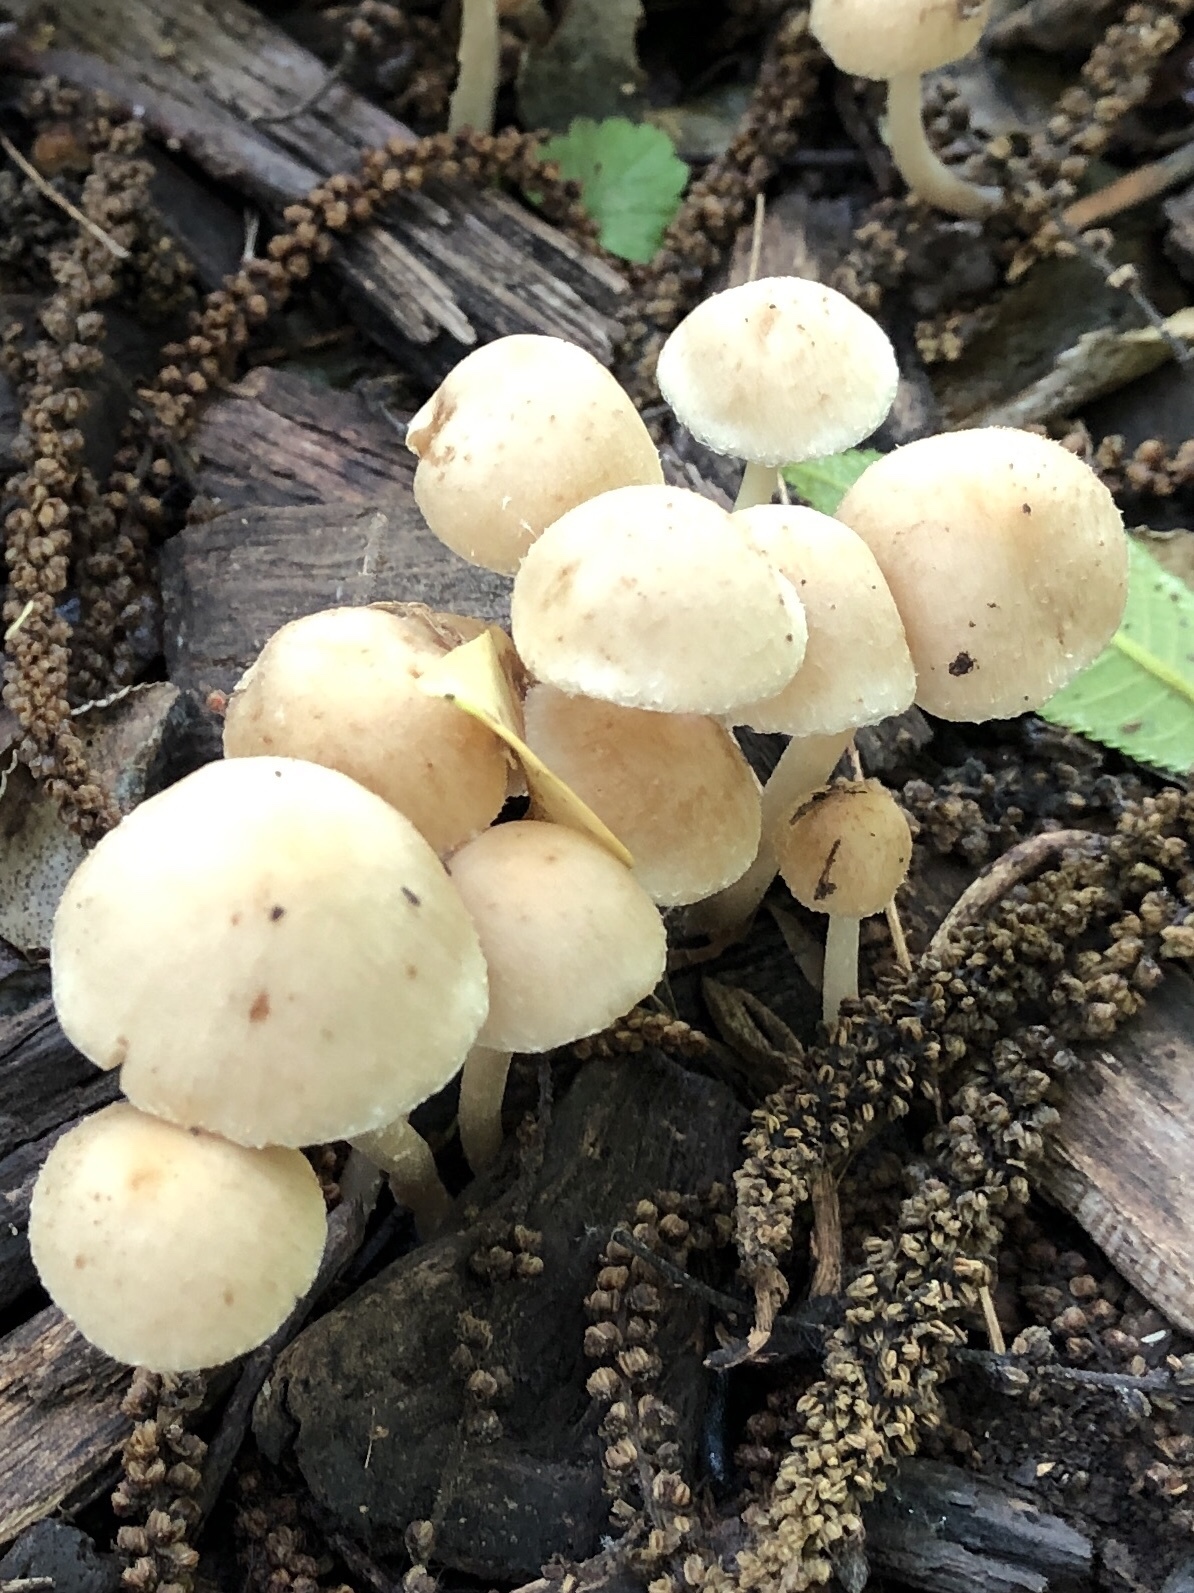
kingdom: Fungi
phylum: Basidiomycota
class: Agaricomycetes
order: Agaricales
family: Psathyrellaceae
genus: Candolleomyces
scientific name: Candolleomyces candolleanus
